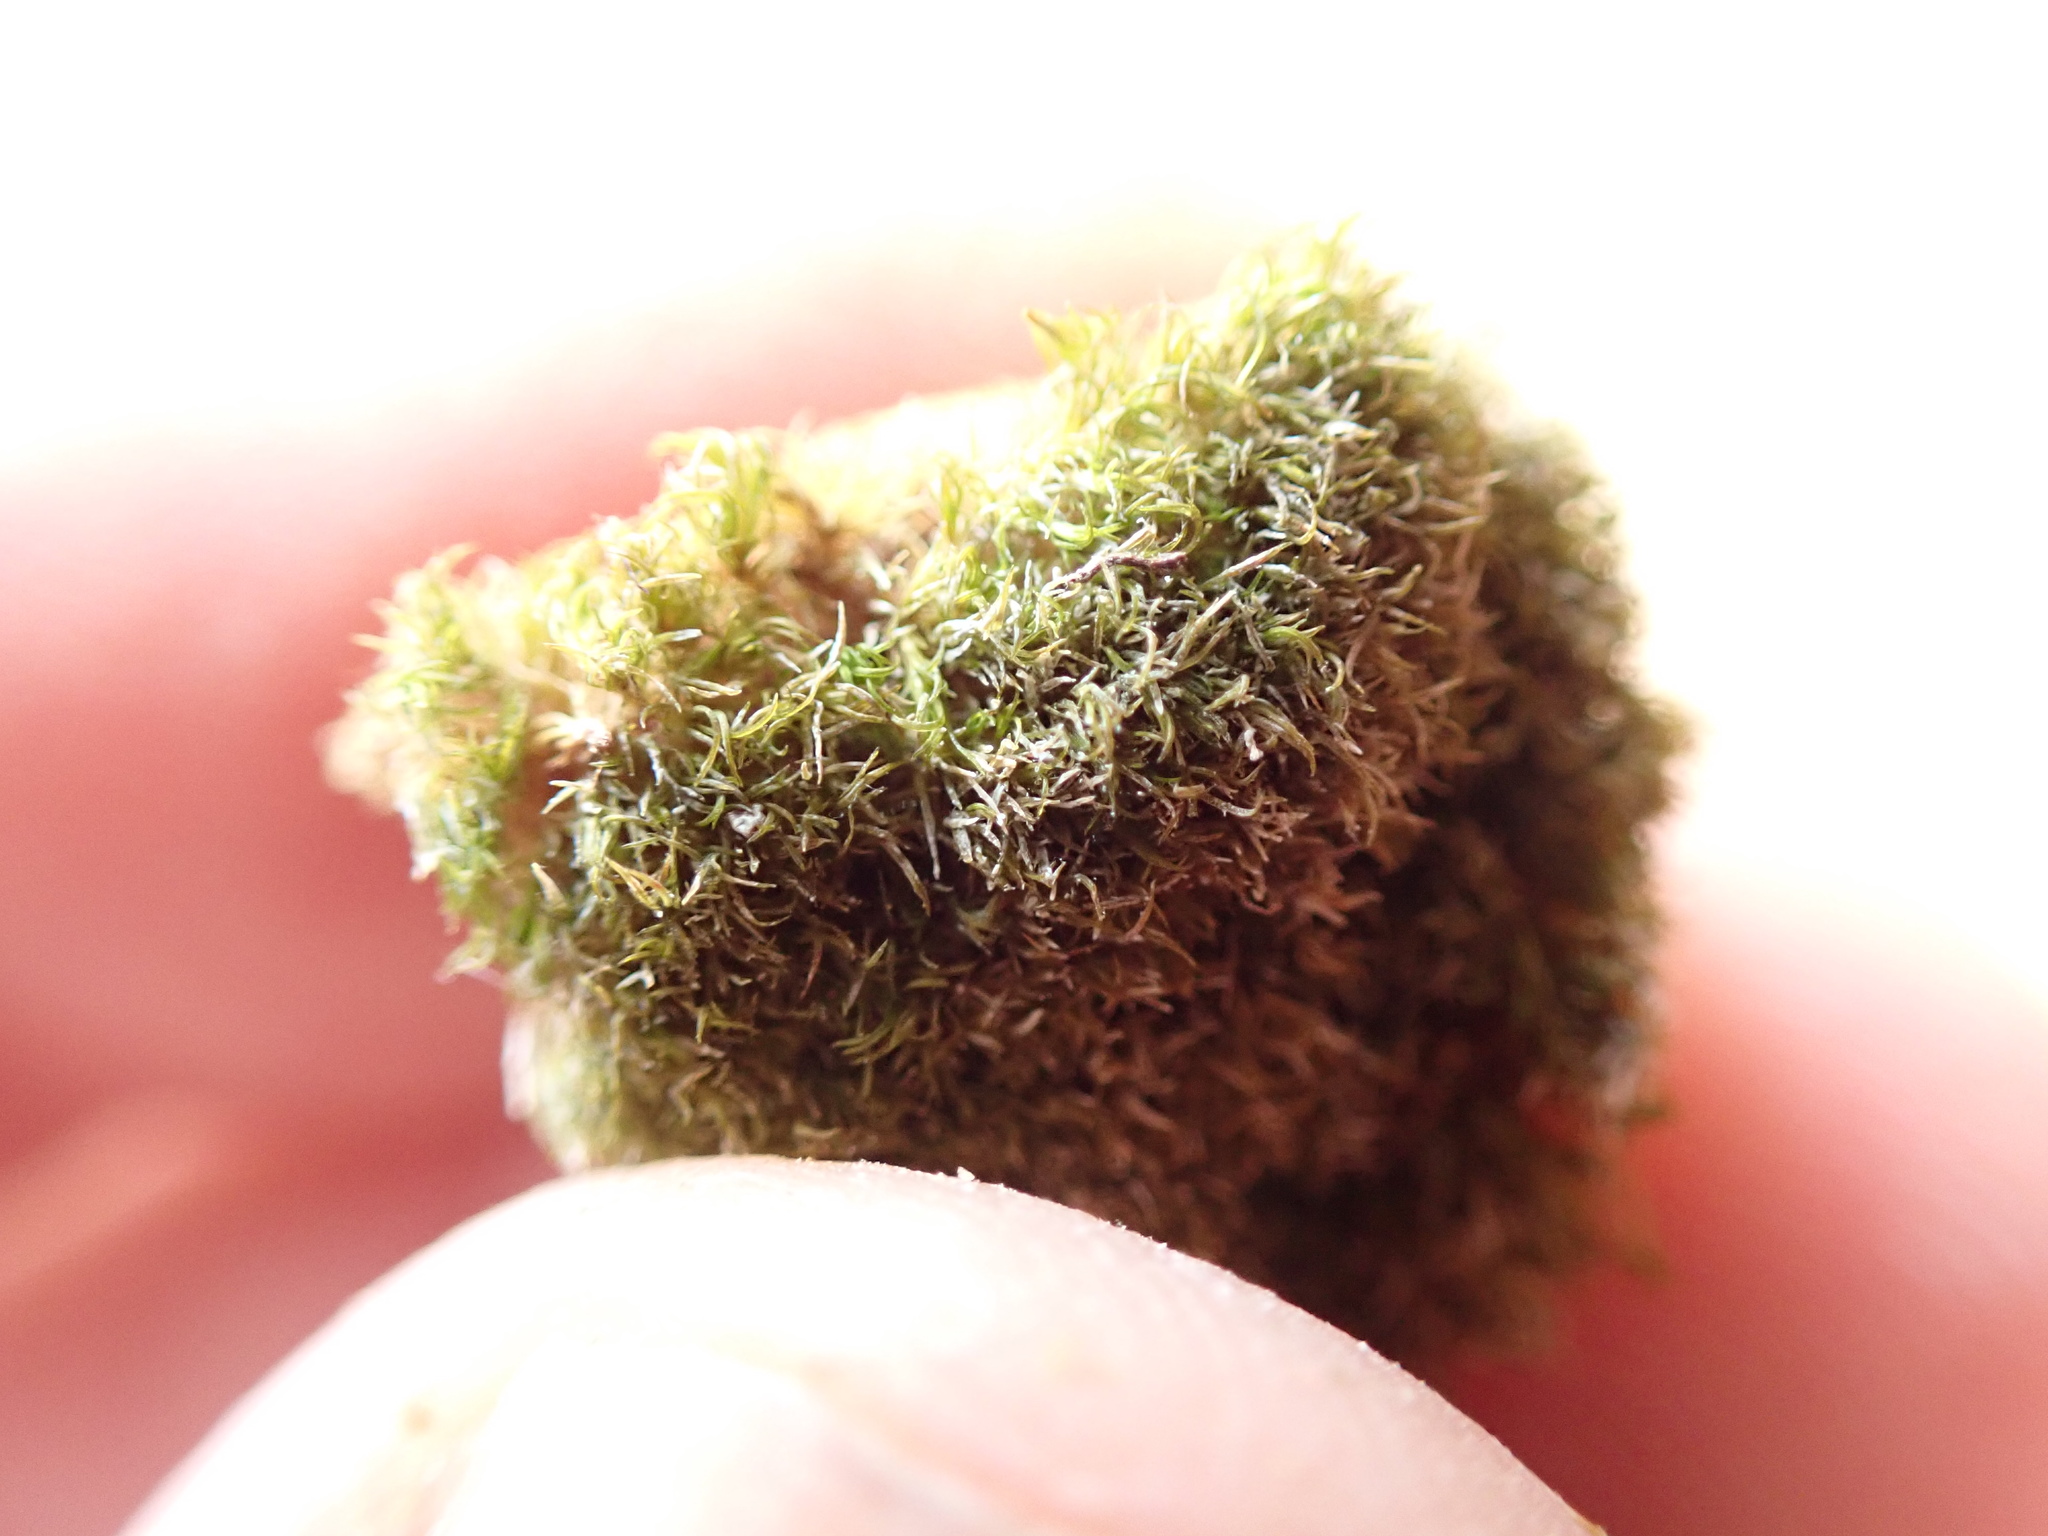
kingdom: Plantae
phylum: Bryophyta
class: Bryopsida
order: Pottiales
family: Pottiaceae
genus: Eucladium
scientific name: Eucladium verticillatum
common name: Whorled tufa-moss
